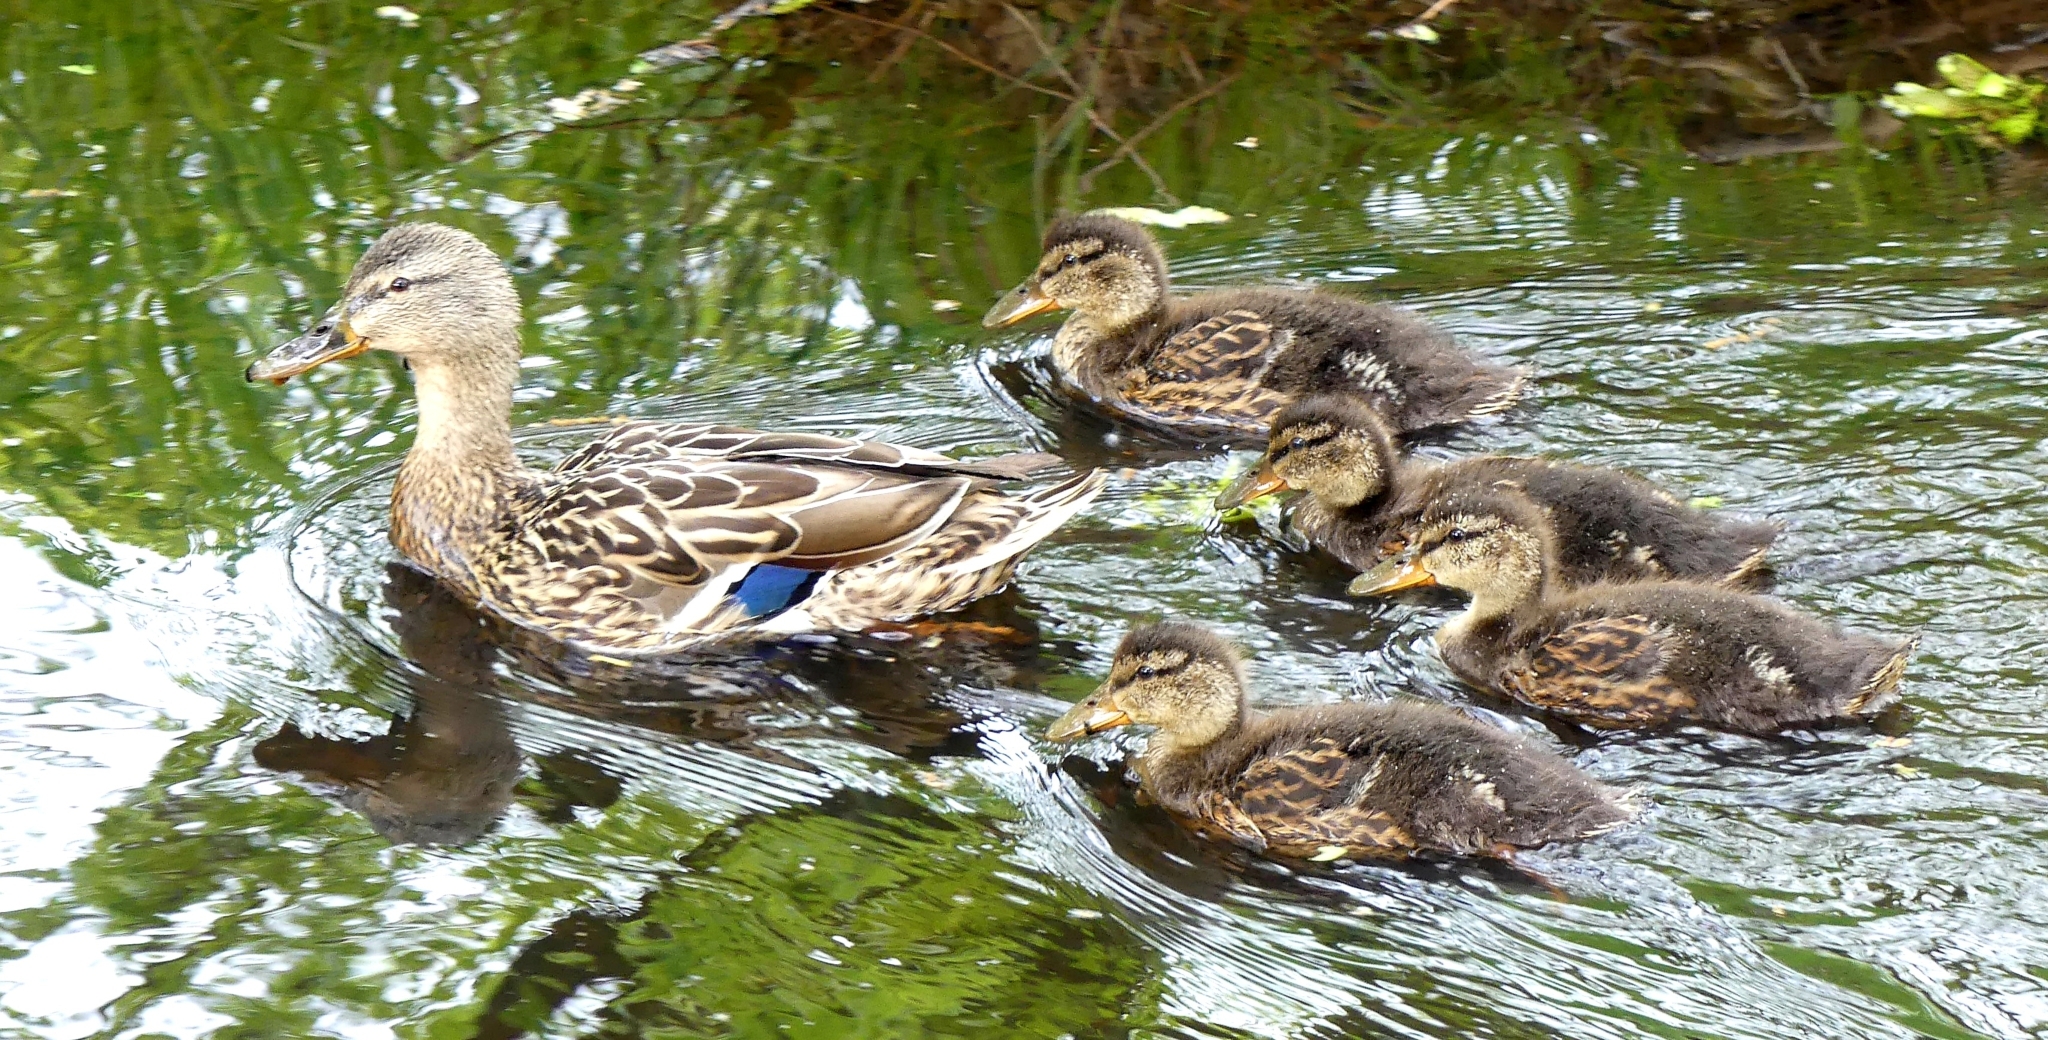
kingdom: Animalia
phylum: Chordata
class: Aves
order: Anseriformes
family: Anatidae
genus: Anas
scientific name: Anas platyrhynchos
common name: Mallard
